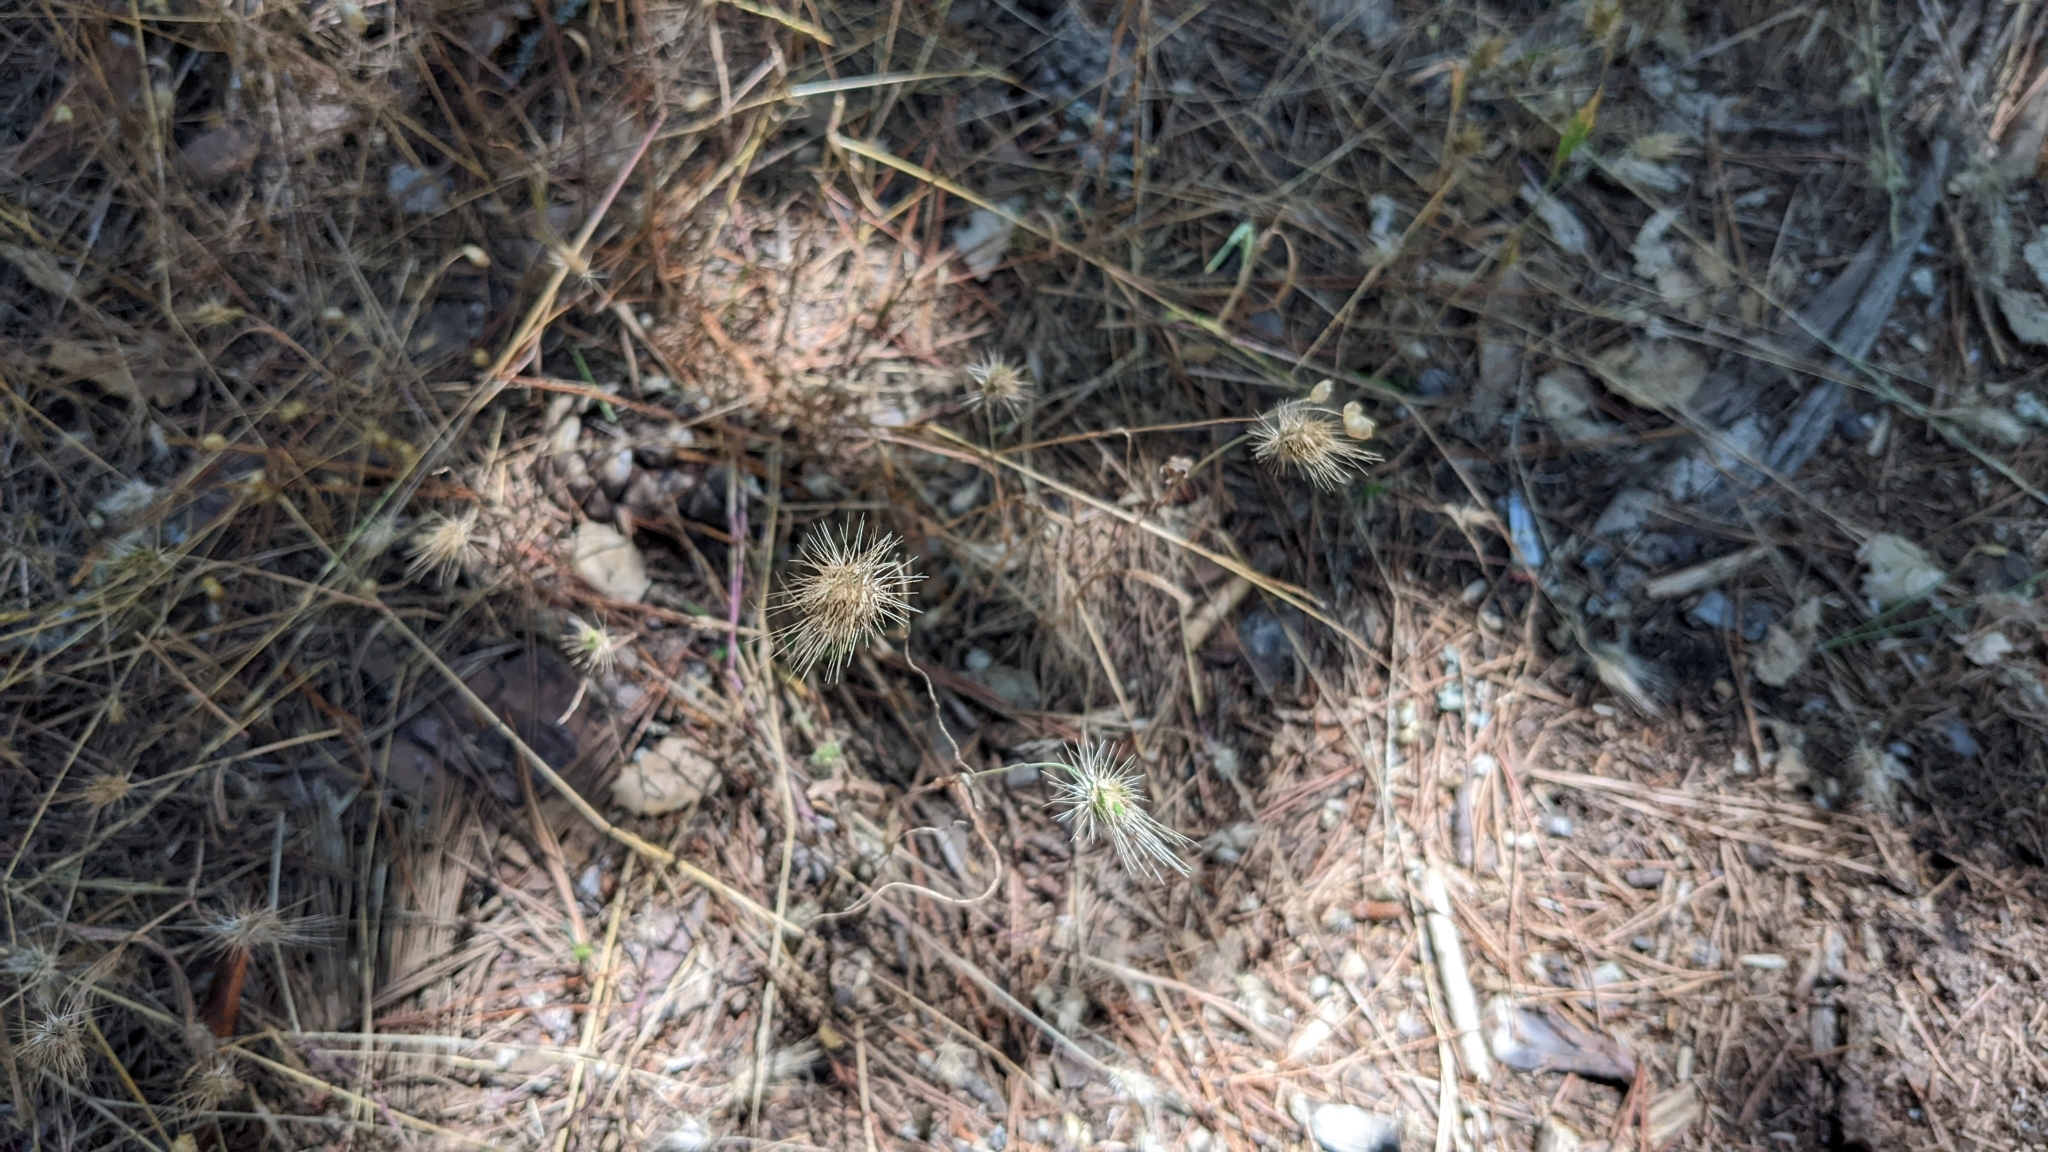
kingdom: Plantae
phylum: Tracheophyta
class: Liliopsida
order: Poales
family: Poaceae
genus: Cynosurus
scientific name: Cynosurus echinatus
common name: Rough dog's-tail
